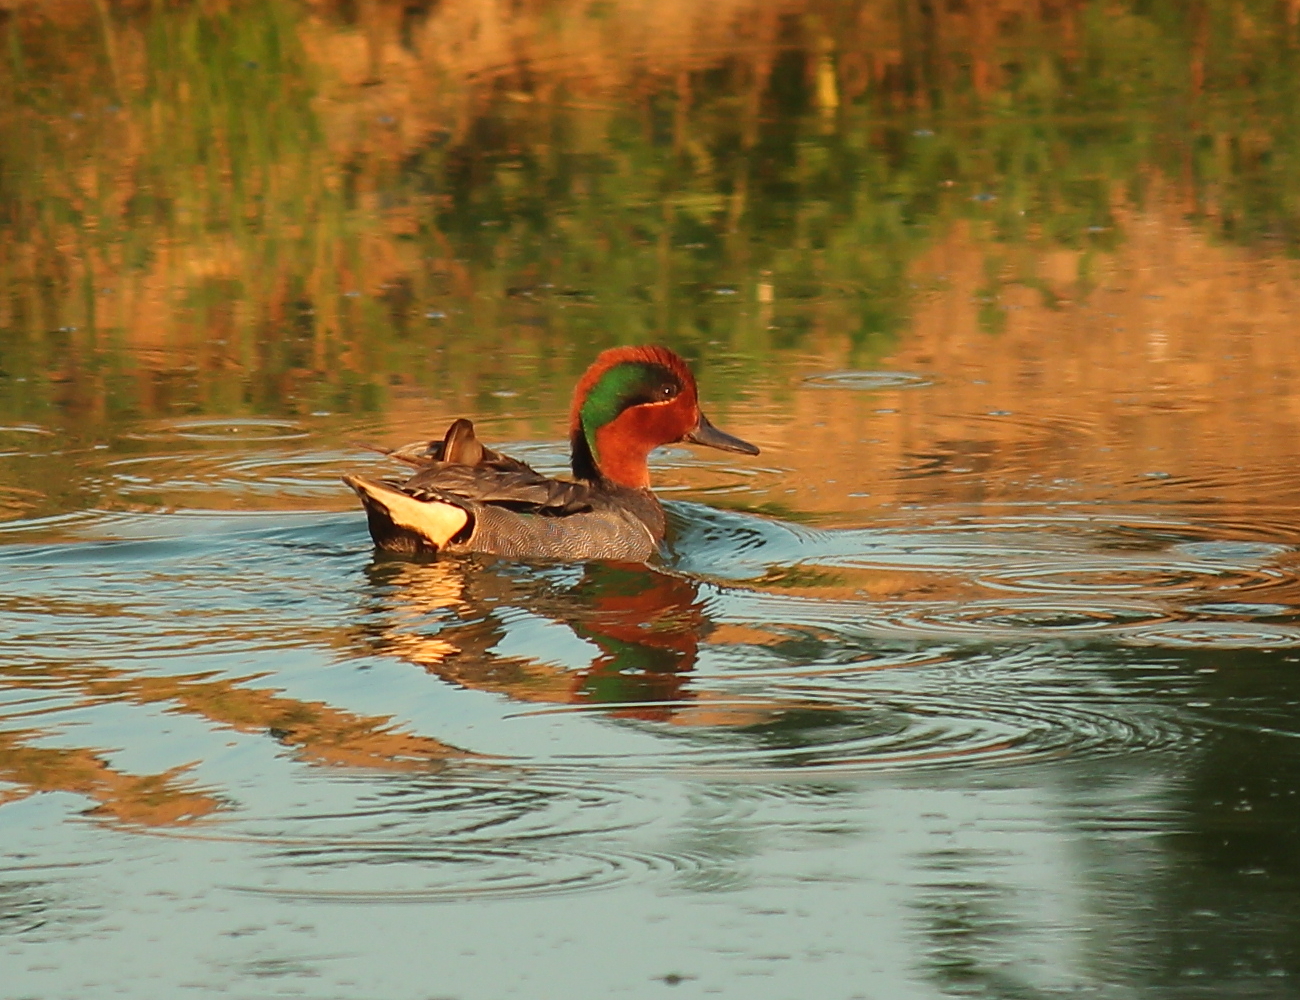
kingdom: Animalia
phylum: Chordata
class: Aves
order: Anseriformes
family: Anatidae
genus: Anas
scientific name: Anas carolinensis
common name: Green-winged teal
